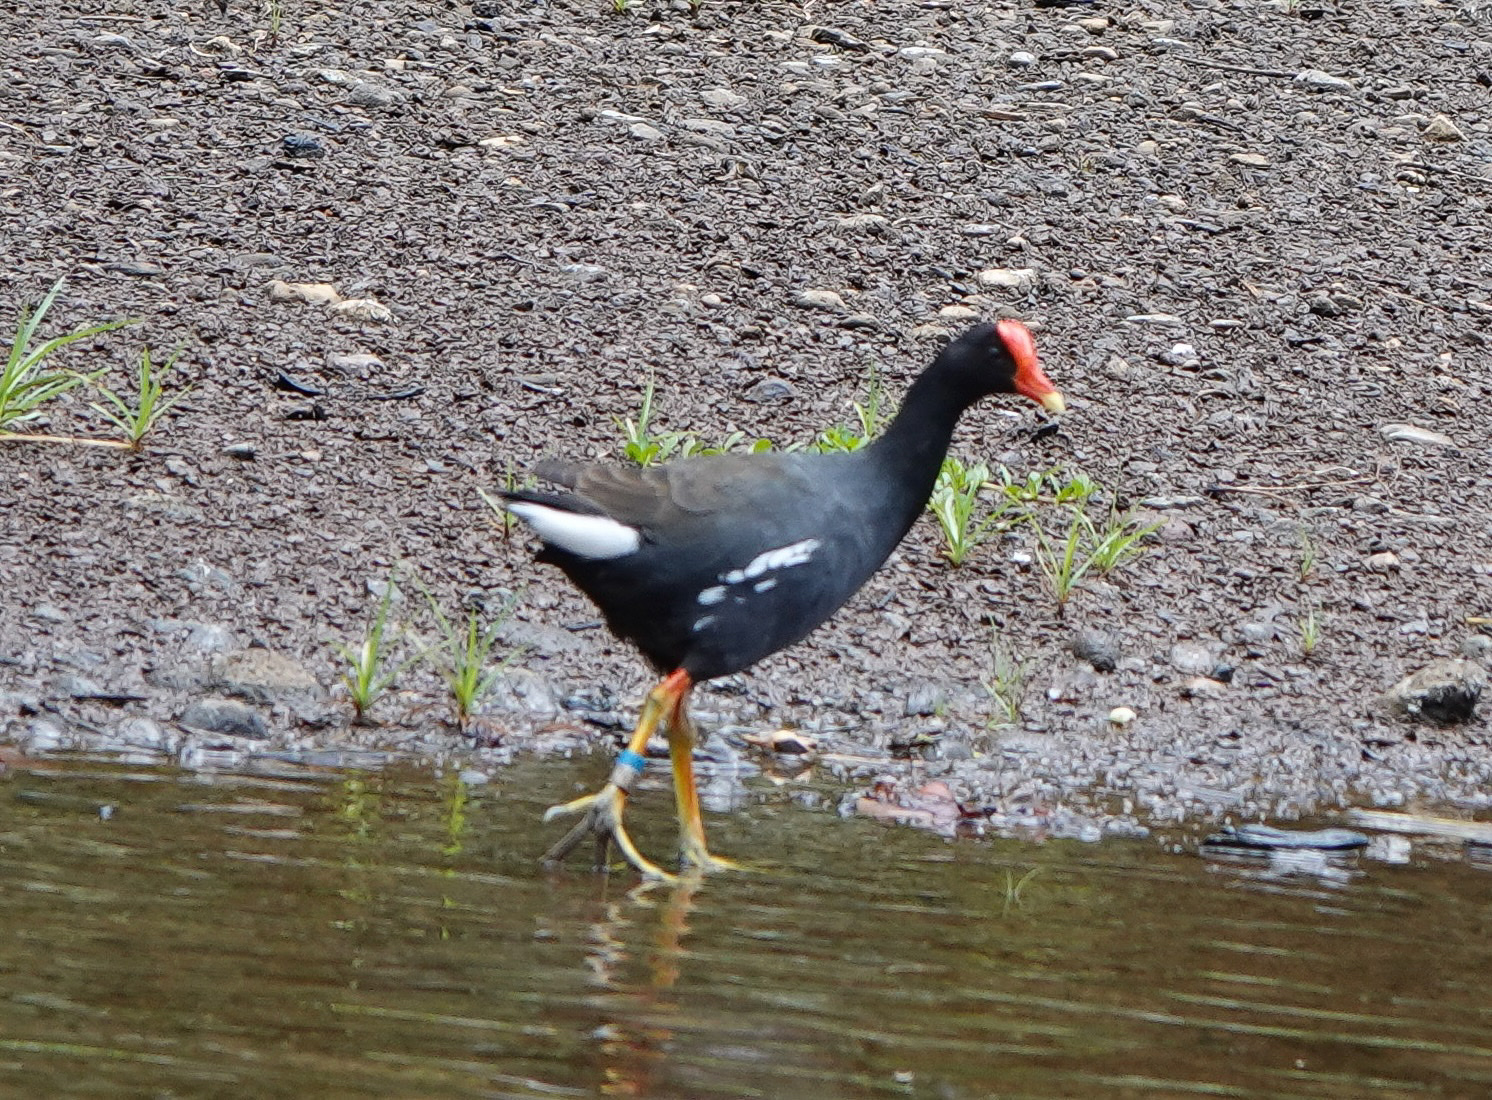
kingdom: Animalia
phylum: Chordata
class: Aves
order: Gruiformes
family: Rallidae
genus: Gallinula
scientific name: Gallinula chloropus
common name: Common moorhen
